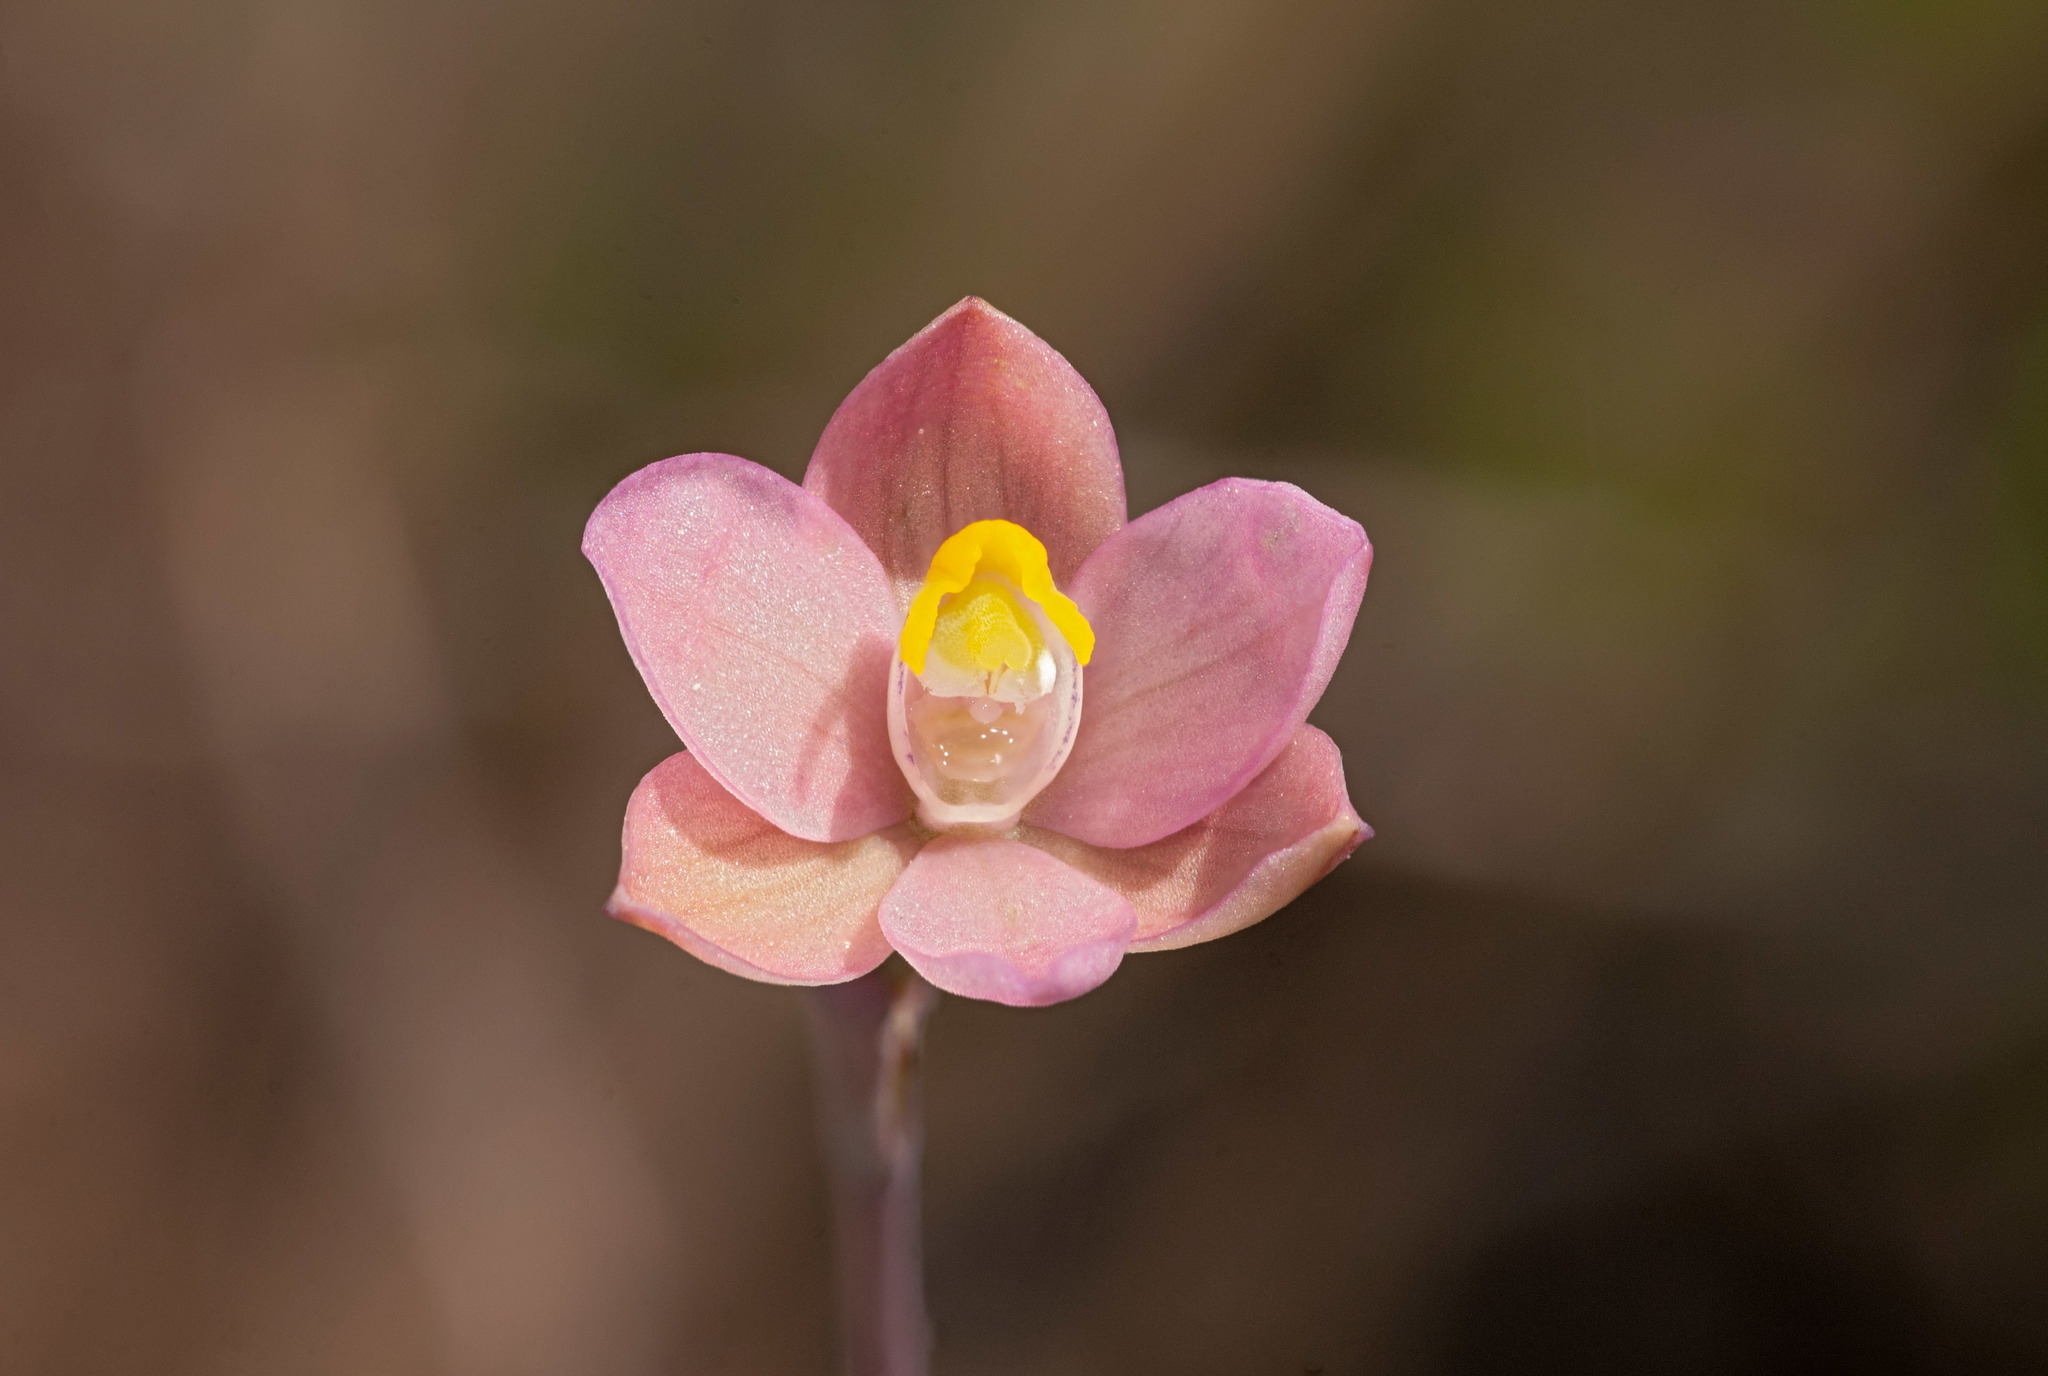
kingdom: Plantae
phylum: Tracheophyta
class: Liliopsida
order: Asparagales
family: Orchidaceae
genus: Thelymitra
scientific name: Thelymitra carnea
